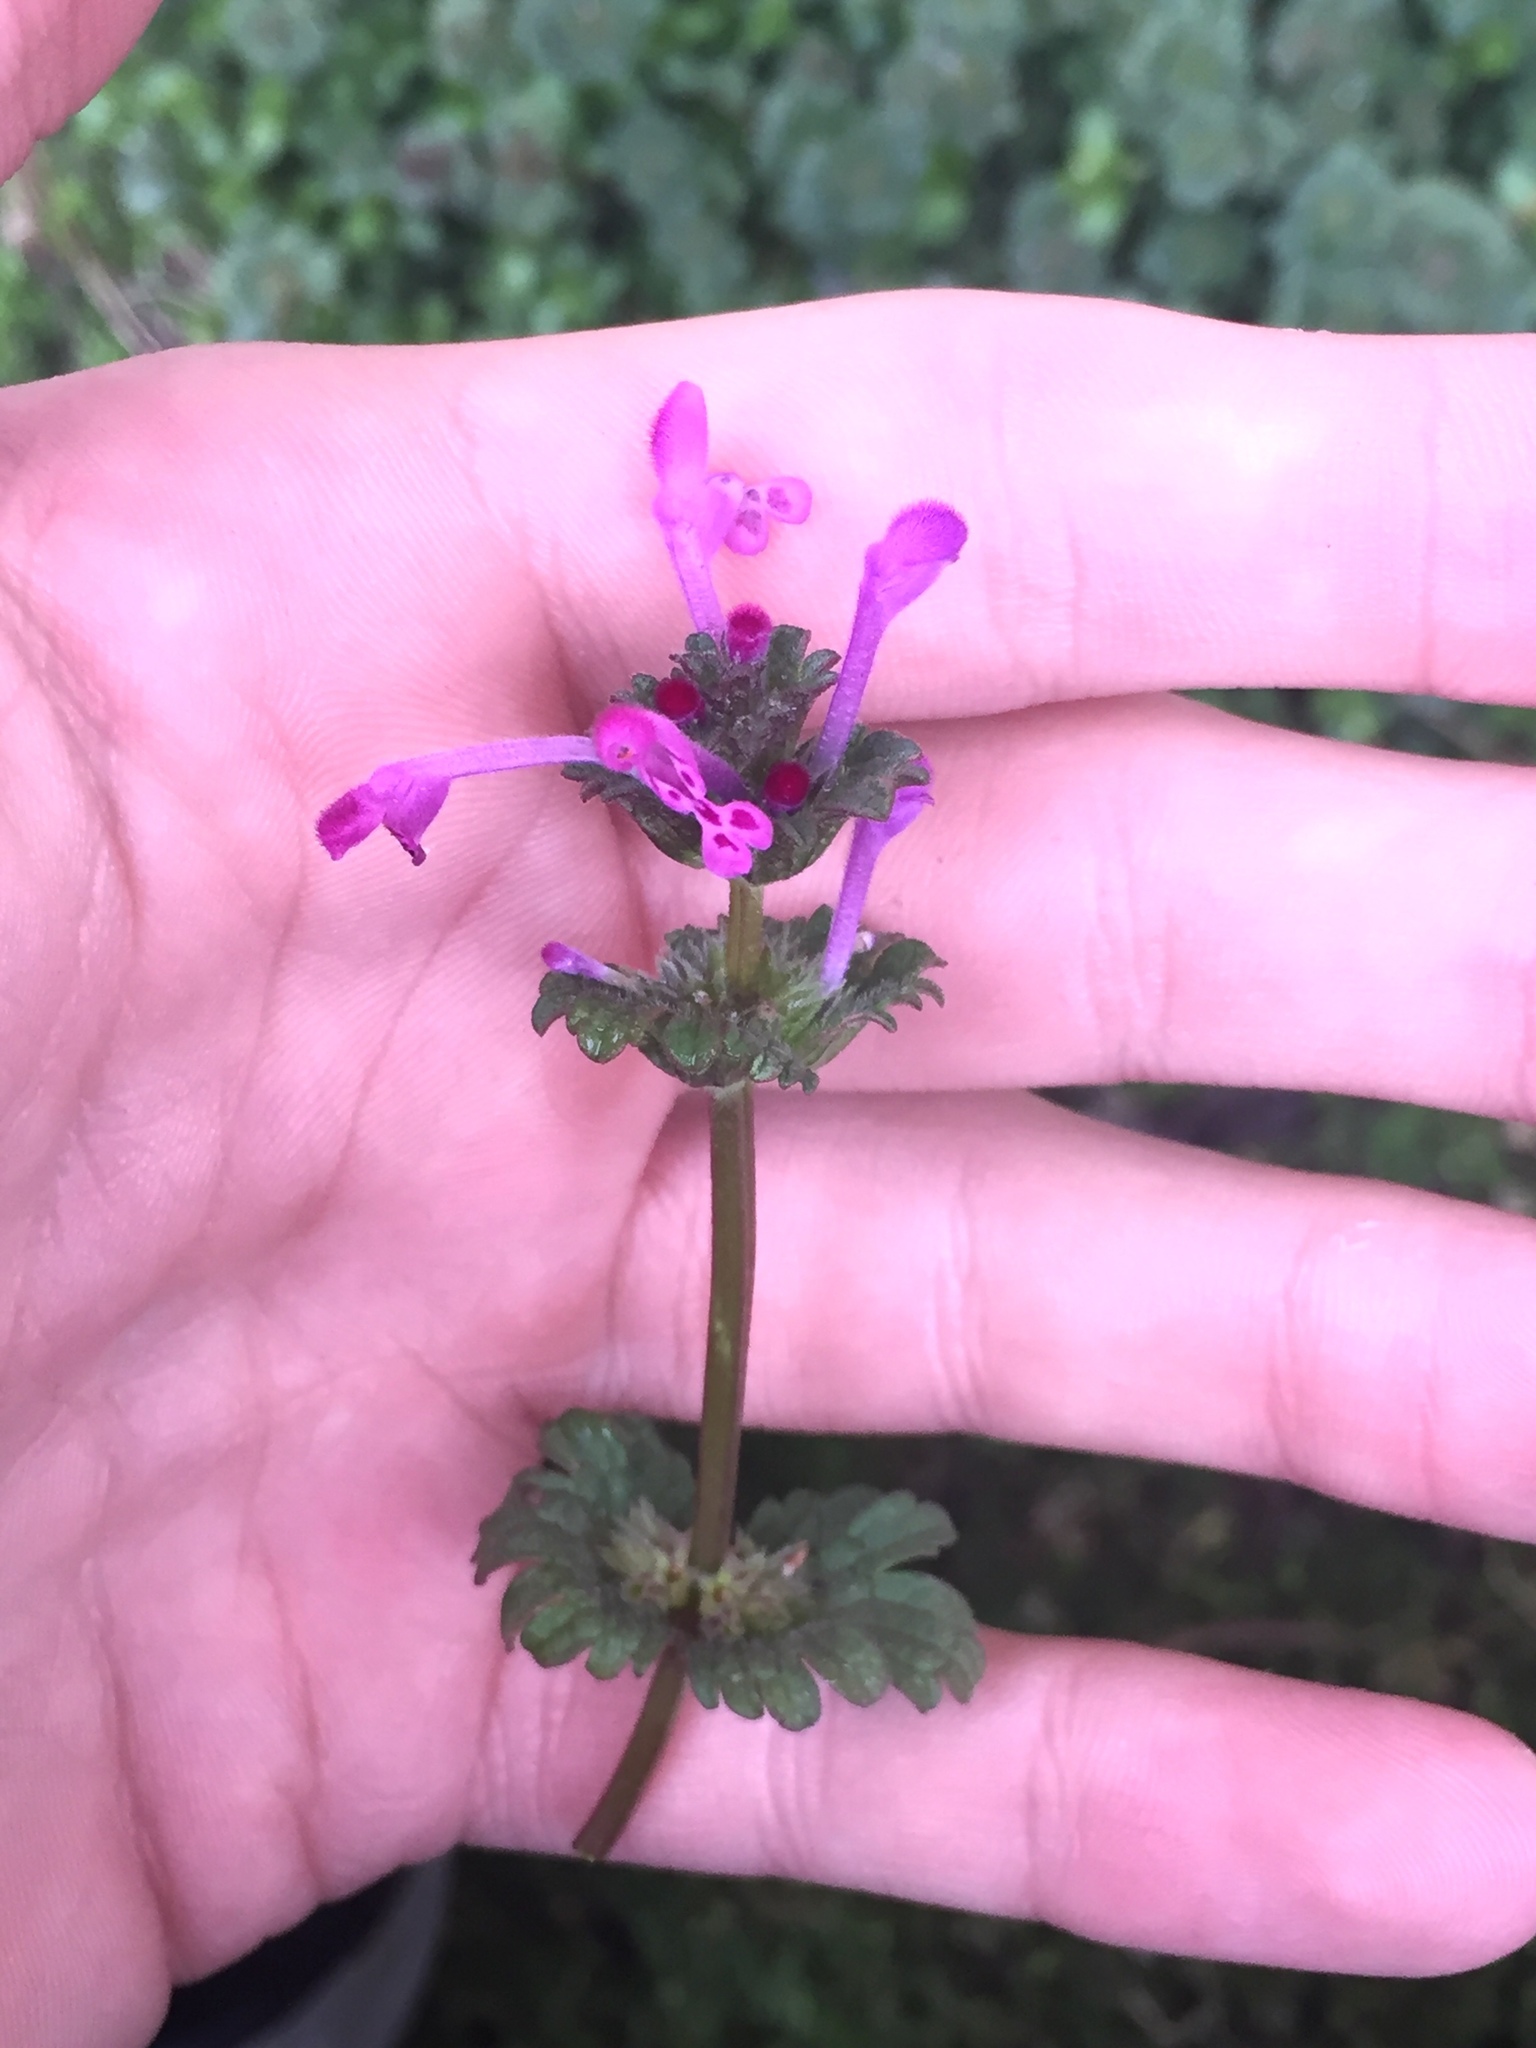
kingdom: Plantae
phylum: Tracheophyta
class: Magnoliopsida
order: Lamiales
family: Lamiaceae
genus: Lamium
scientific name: Lamium amplexicaule
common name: Henbit dead-nettle
